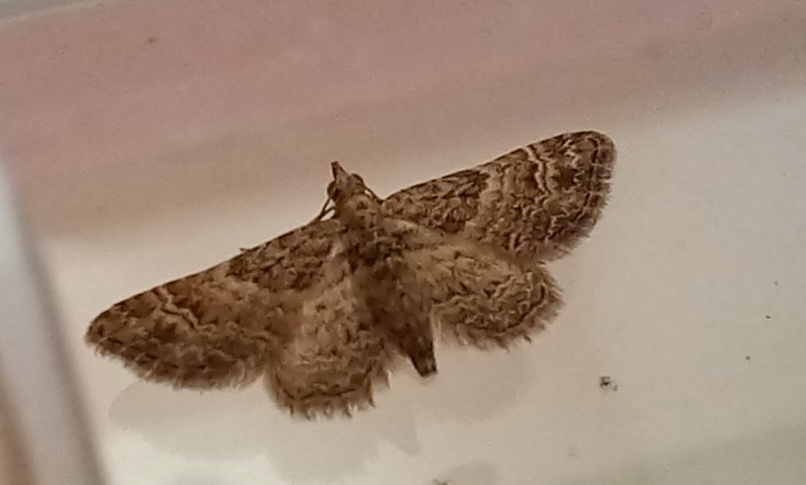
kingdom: Animalia
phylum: Arthropoda
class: Insecta
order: Lepidoptera
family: Geometridae
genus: Gymnoscelis
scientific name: Gymnoscelis rufifasciata
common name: Double-striped pug
